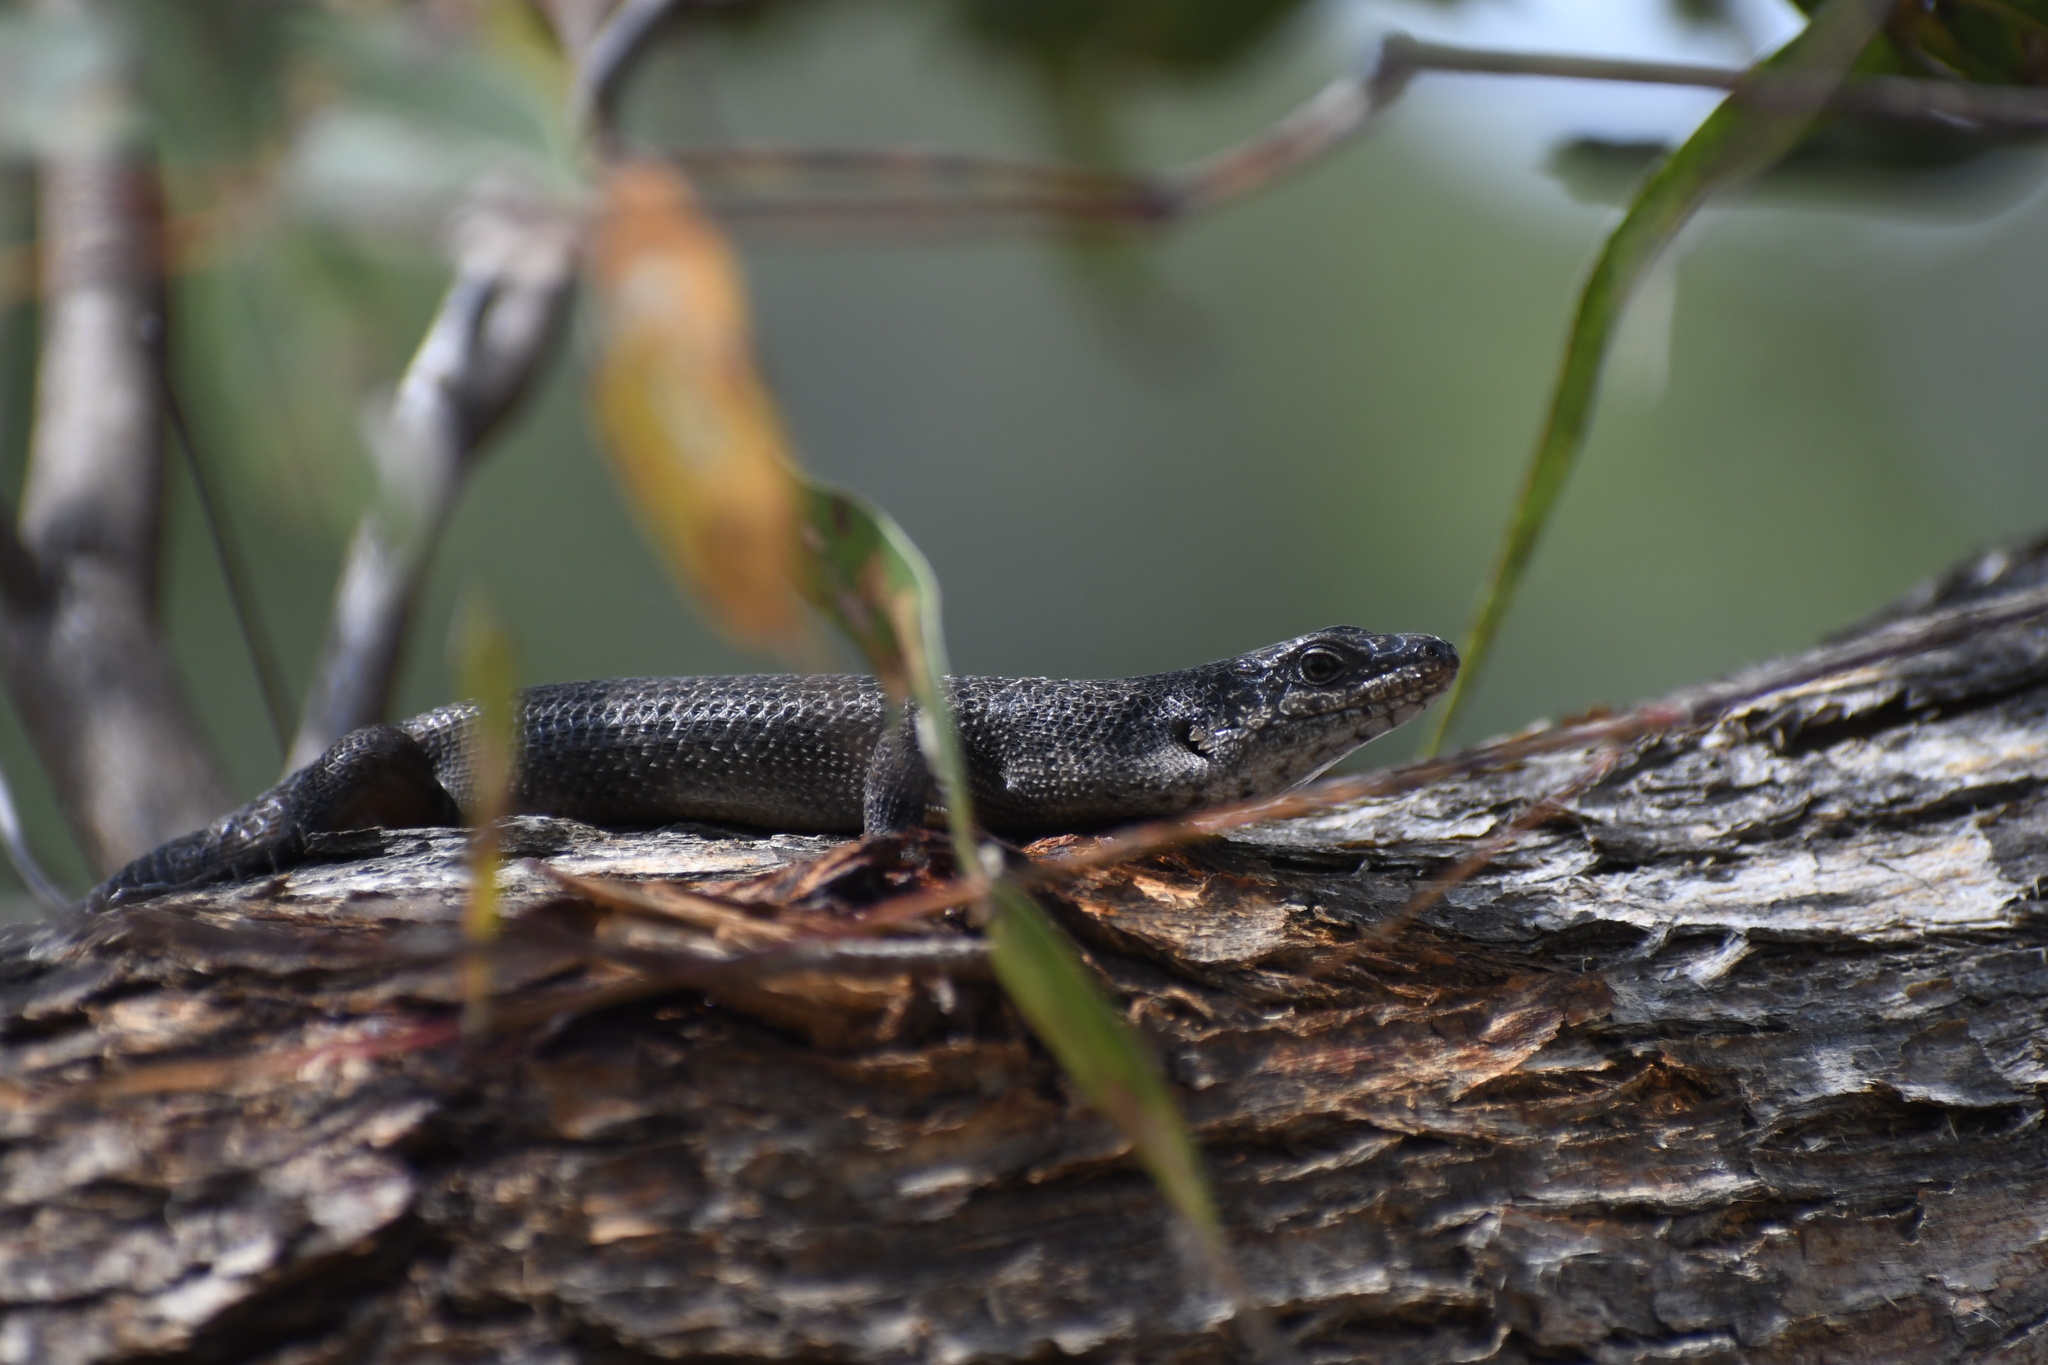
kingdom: Animalia
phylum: Chordata
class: Squamata
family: Scincidae
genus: Egernia
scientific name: Egernia saxatilis
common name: Black crevice-skink
